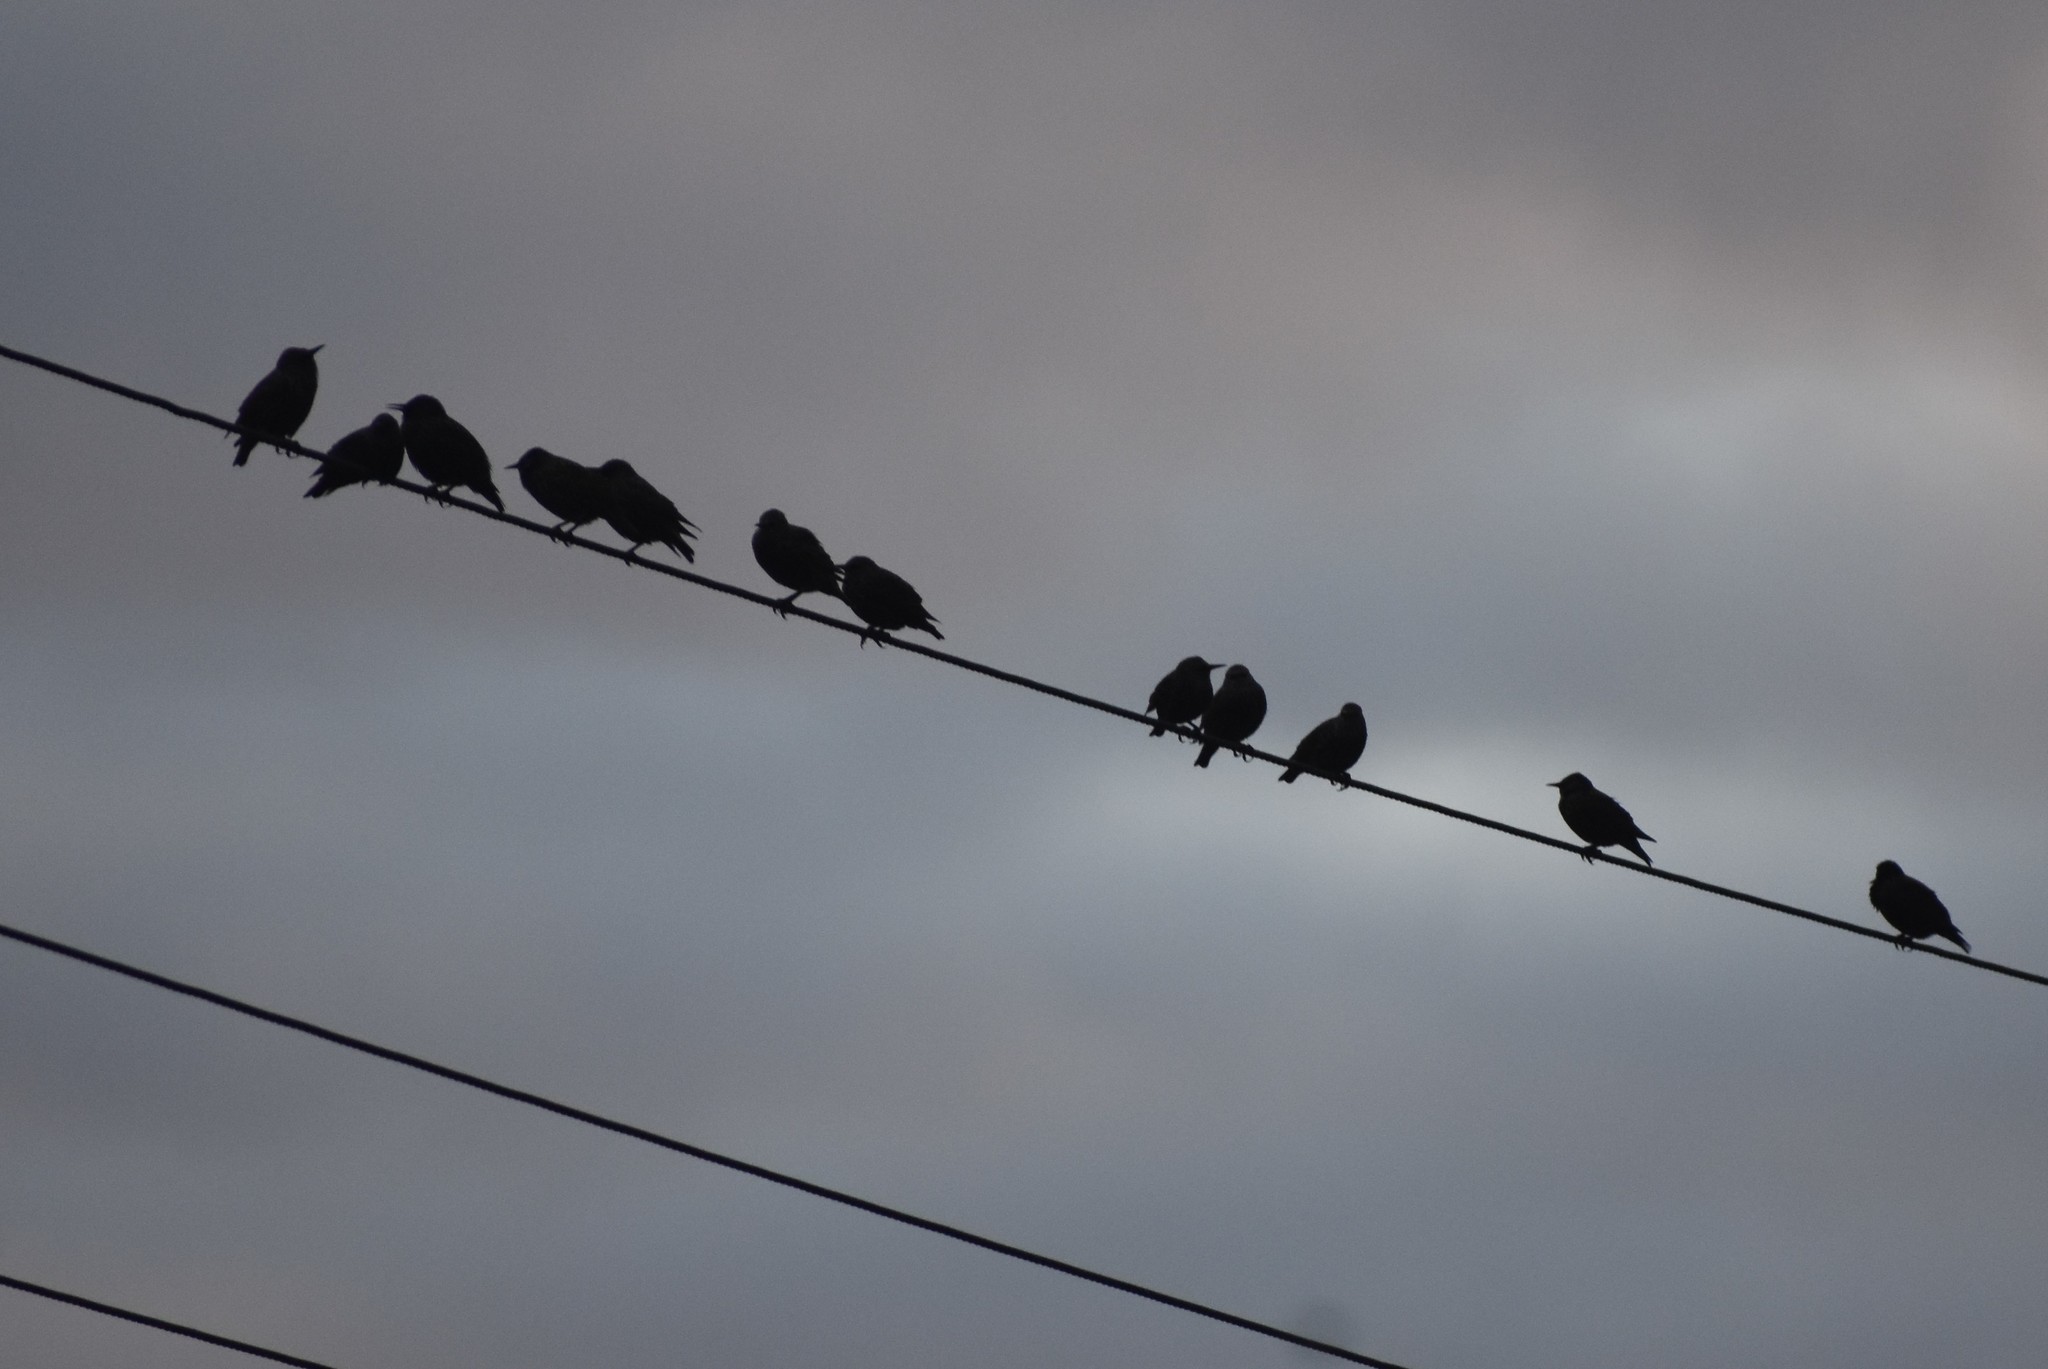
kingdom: Animalia
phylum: Chordata
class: Aves
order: Passeriformes
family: Sturnidae
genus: Sturnus
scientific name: Sturnus vulgaris
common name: Common starling
